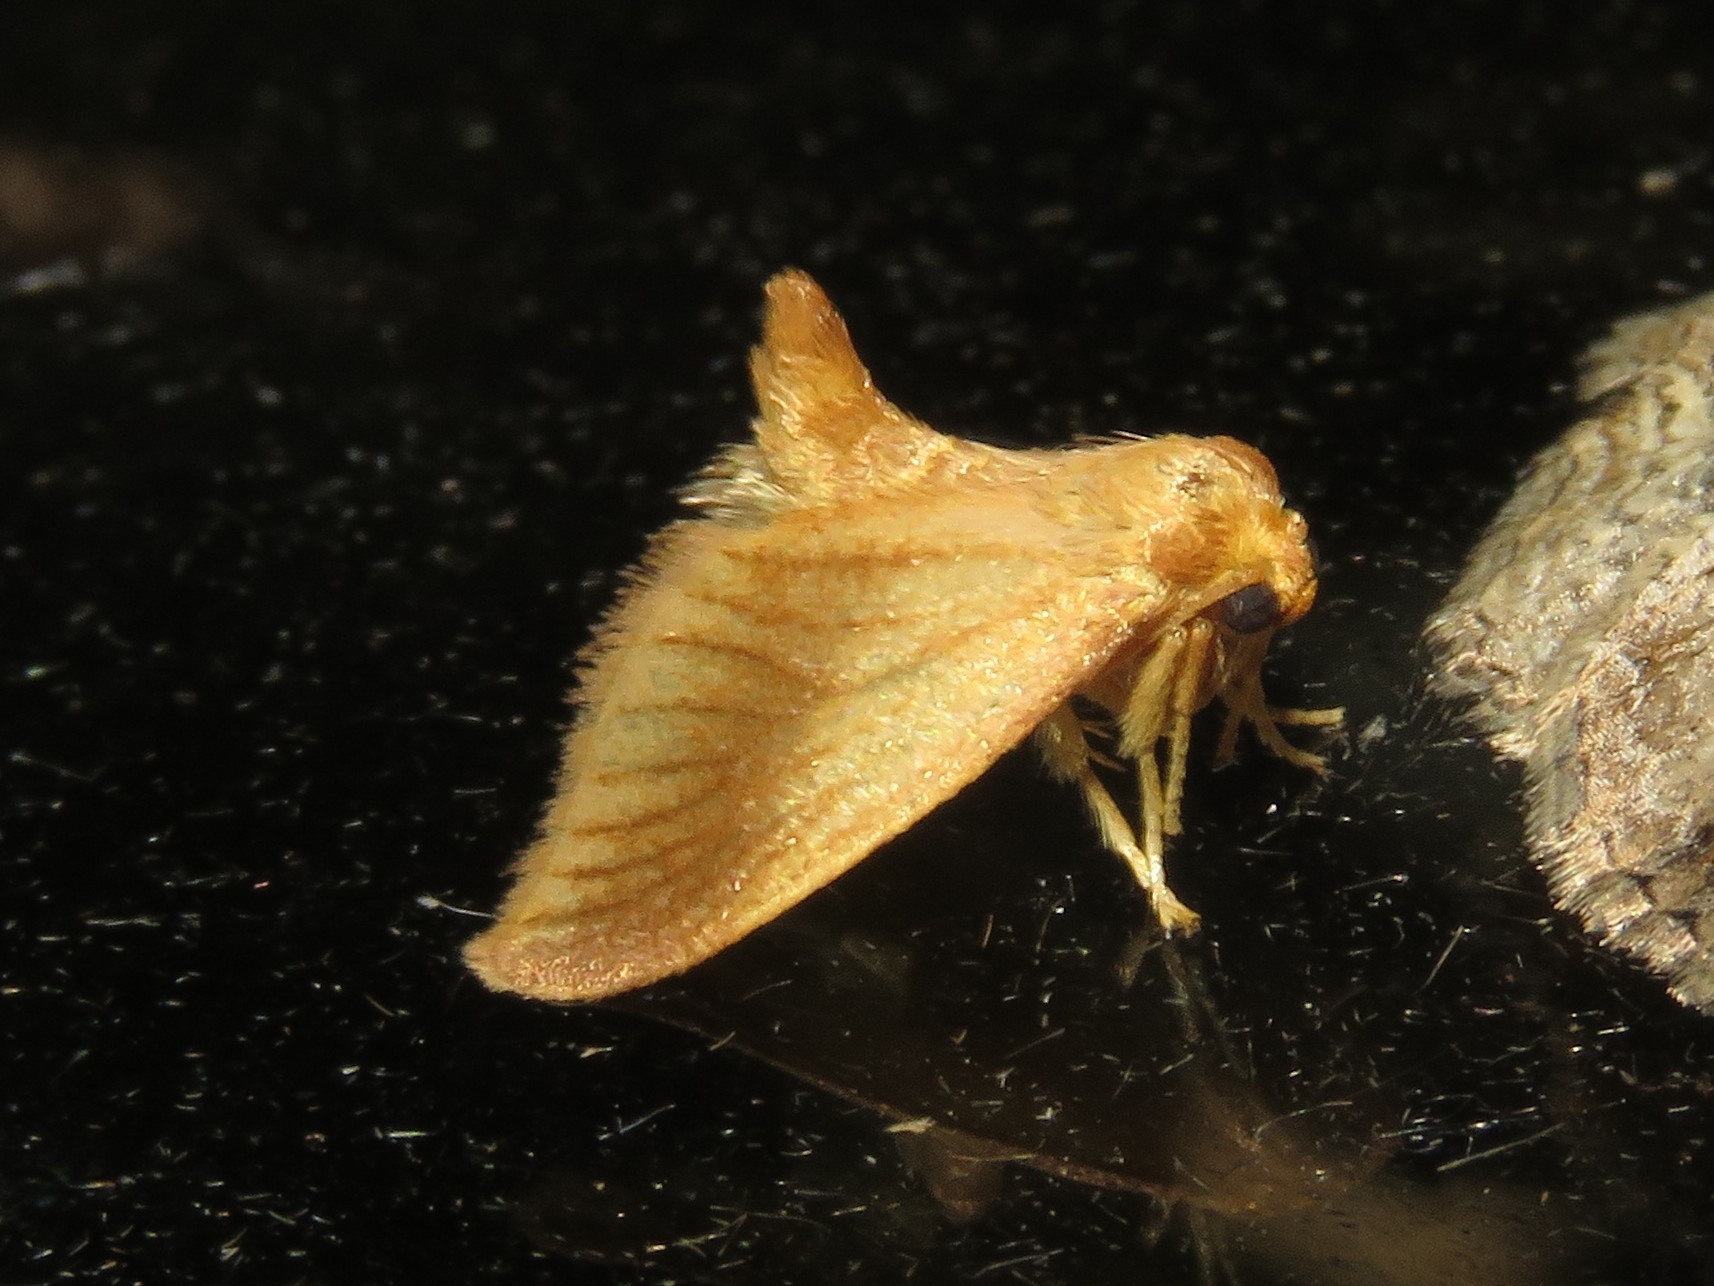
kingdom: Animalia
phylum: Arthropoda
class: Insecta
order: Lepidoptera
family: Limacodidae
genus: Tortricidia
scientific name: Tortricidia testacea
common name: Early button slug moth
